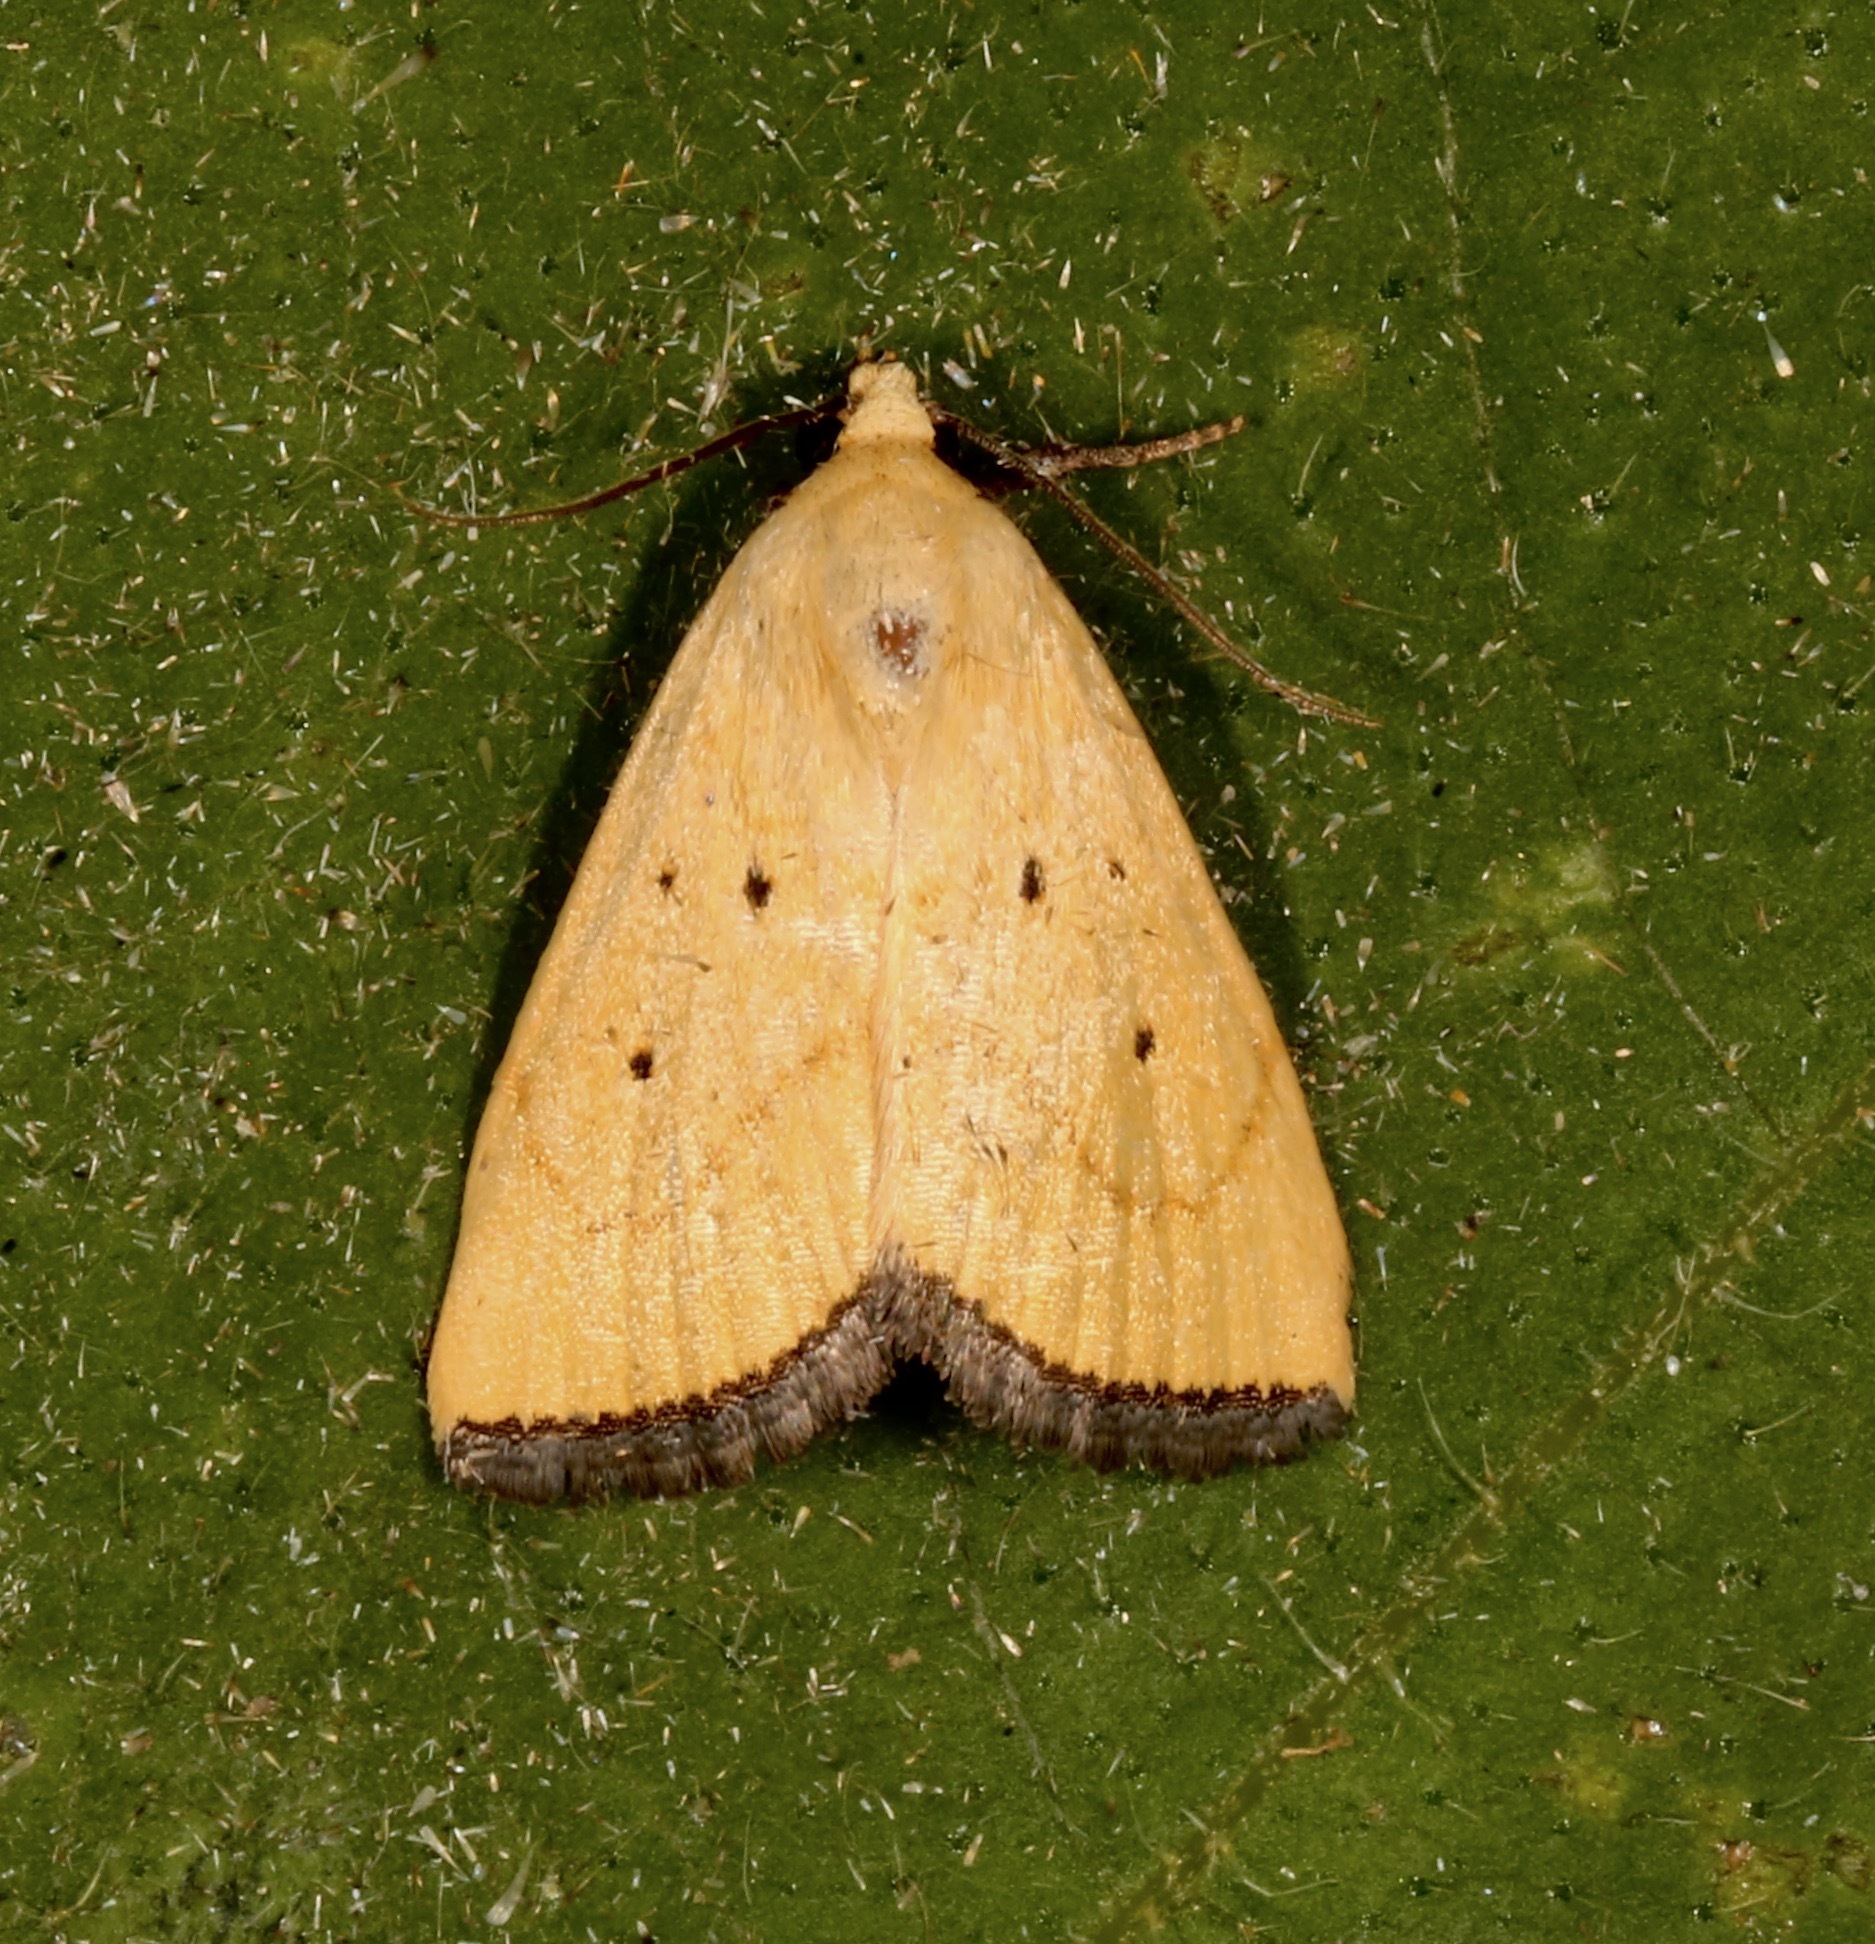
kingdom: Animalia
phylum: Arthropoda
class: Insecta
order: Lepidoptera
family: Noctuidae
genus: Marimatha
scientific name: Marimatha
